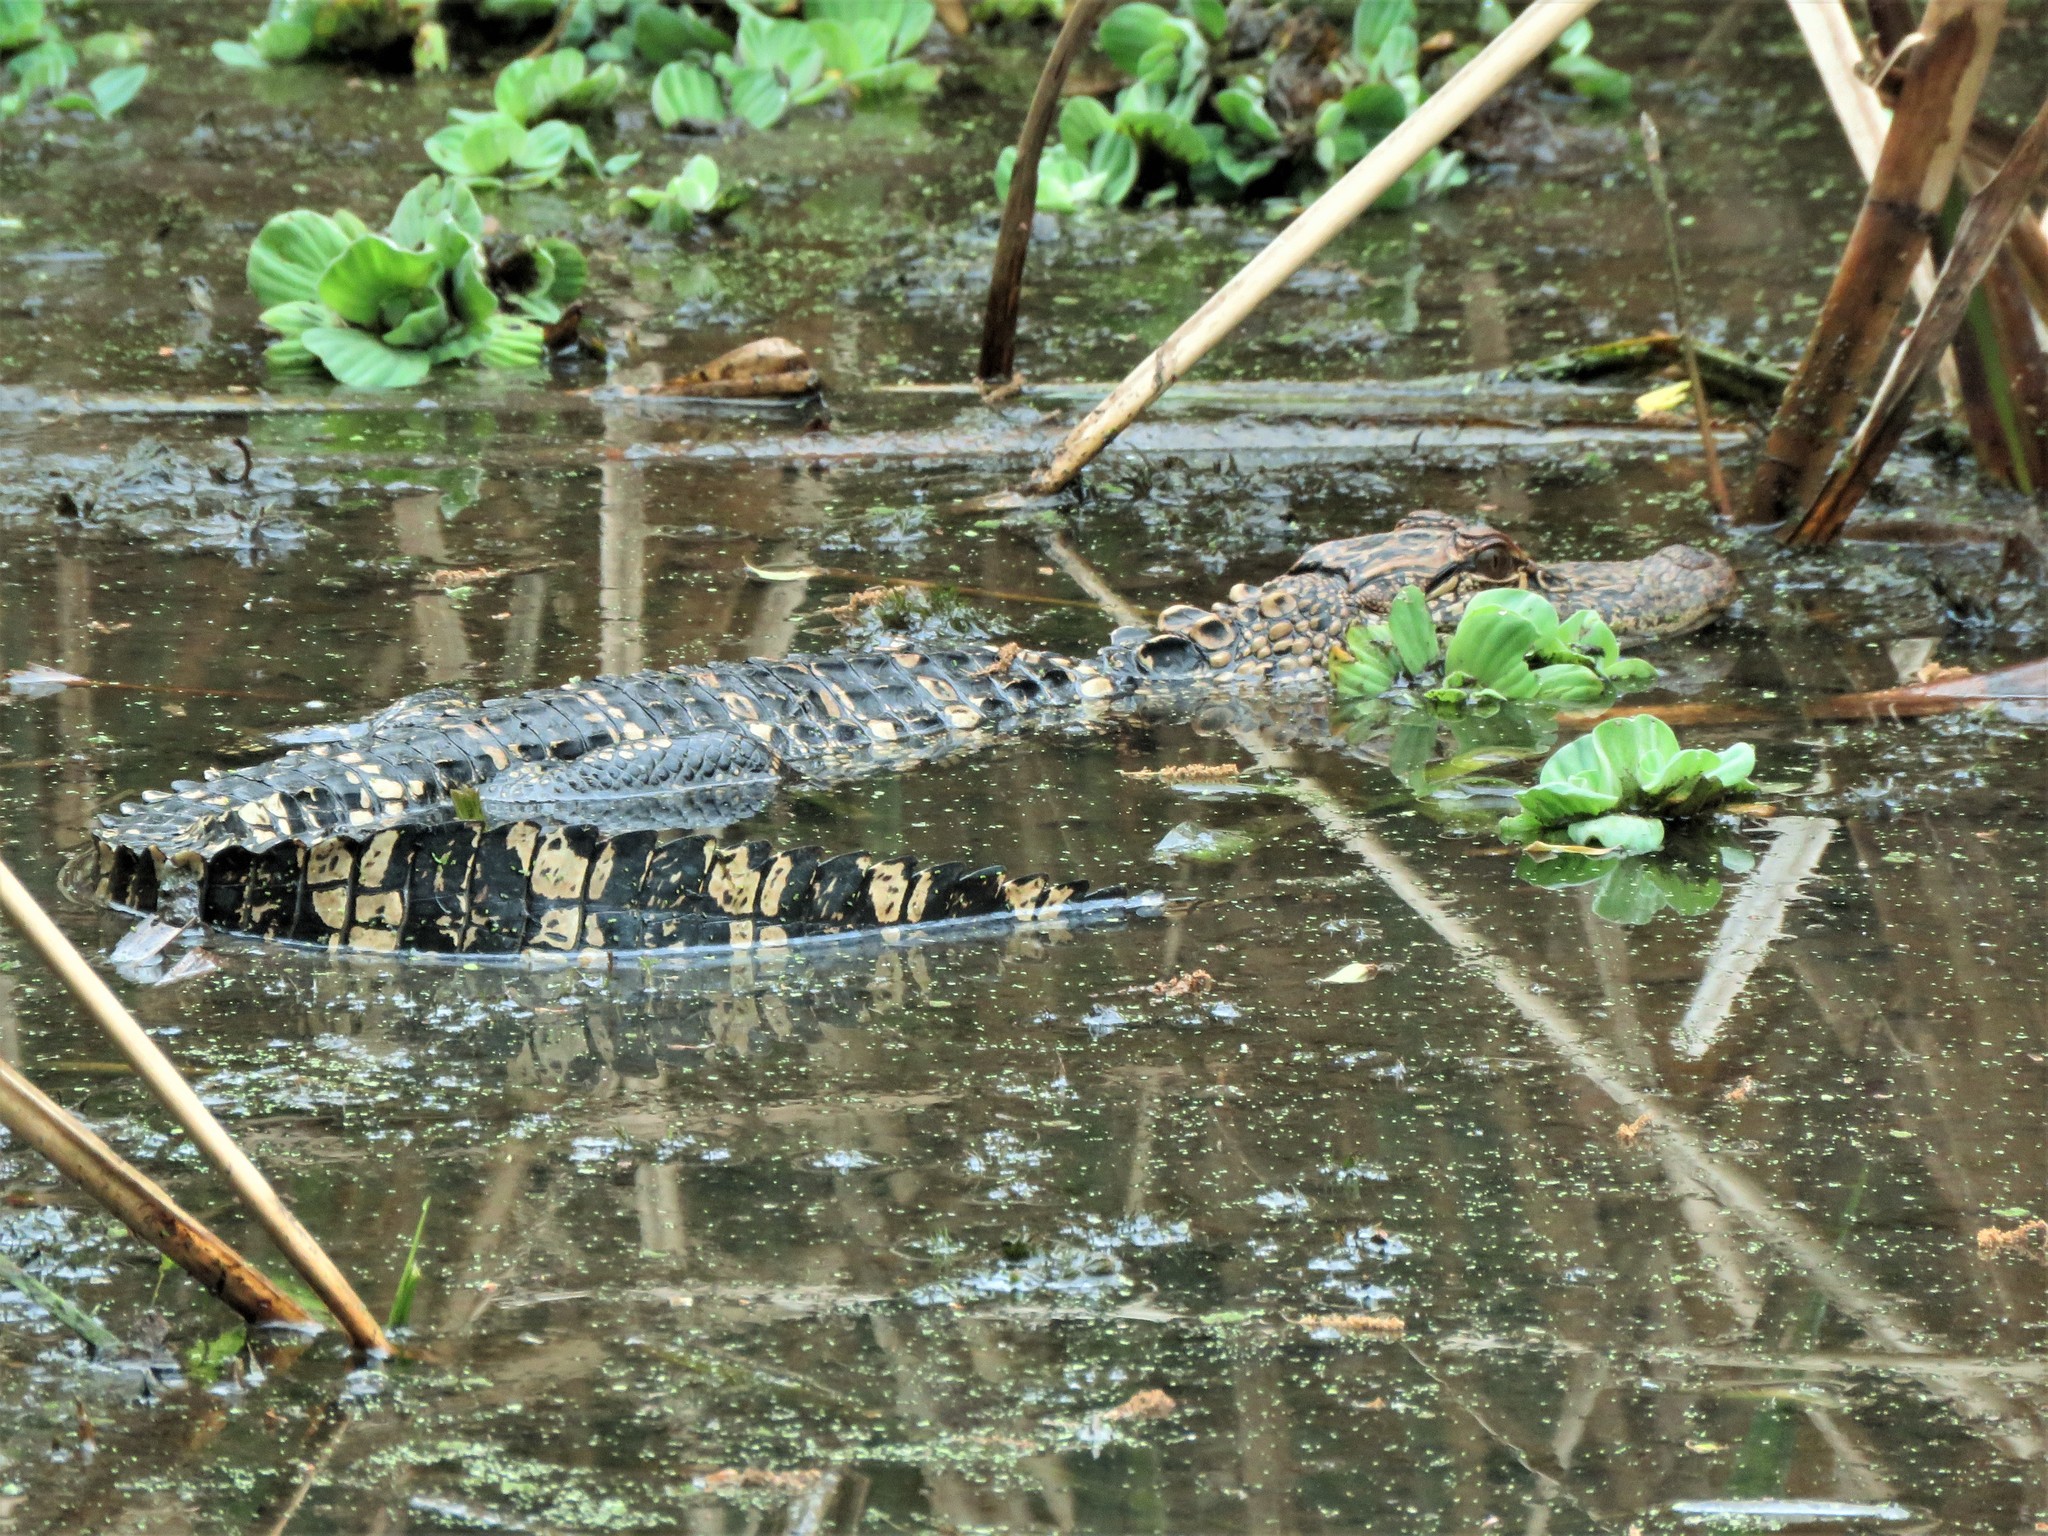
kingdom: Animalia
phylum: Chordata
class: Crocodylia
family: Alligatoridae
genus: Alligator
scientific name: Alligator mississippiensis
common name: American alligator
